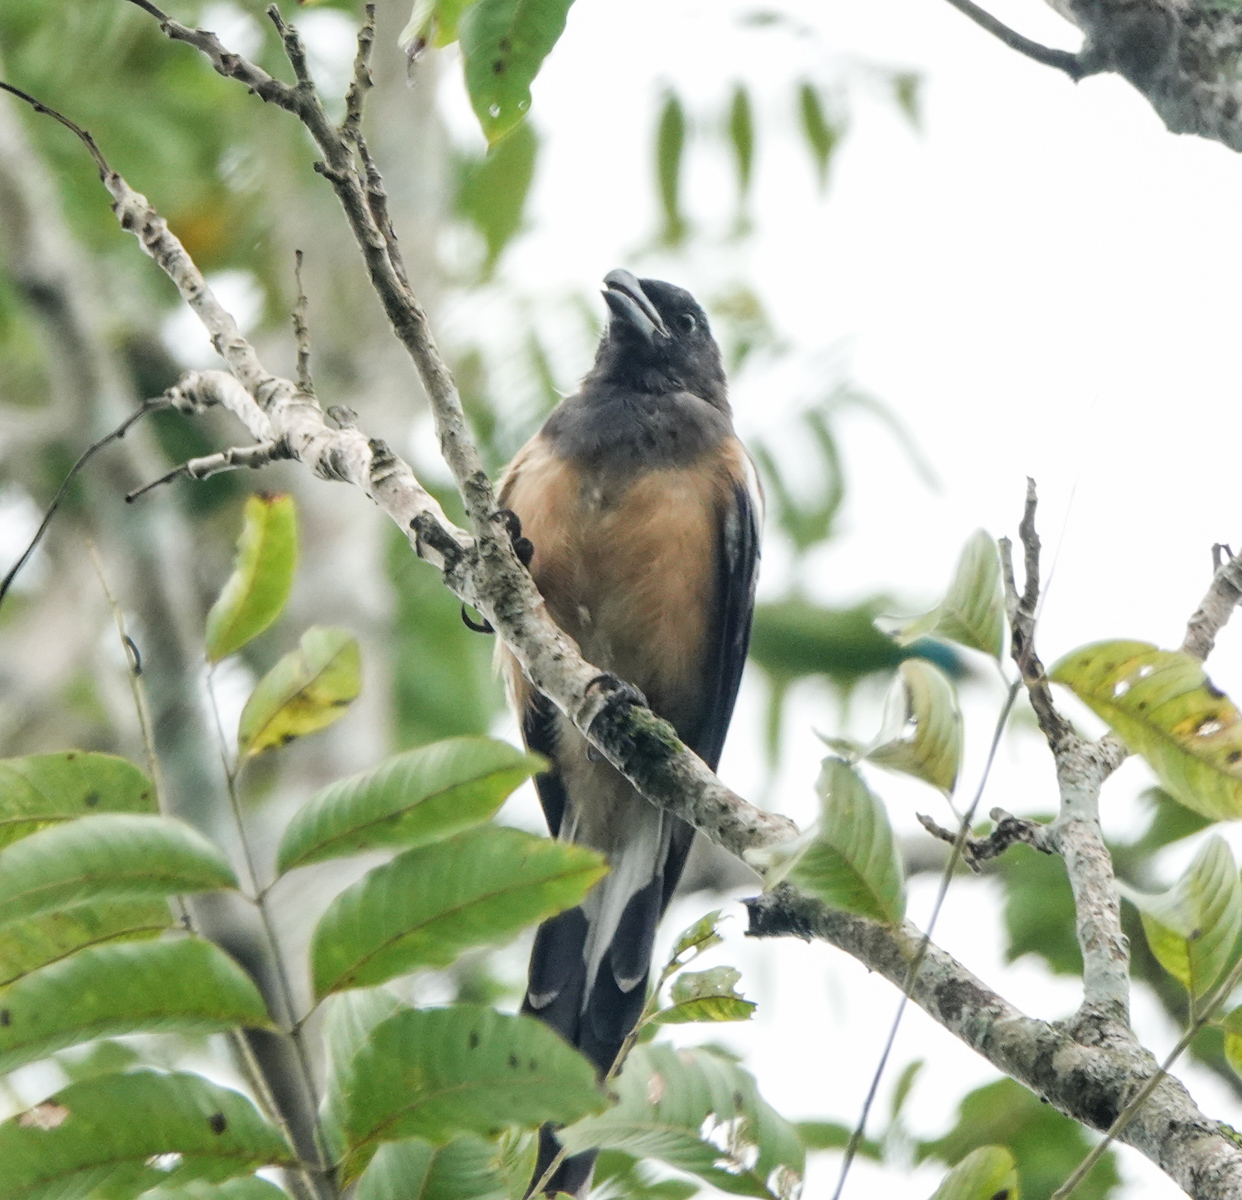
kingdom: Animalia
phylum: Chordata
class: Aves
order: Passeriformes
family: Corvidae
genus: Dendrocitta
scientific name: Dendrocitta vagabunda
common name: Rufous treepie
